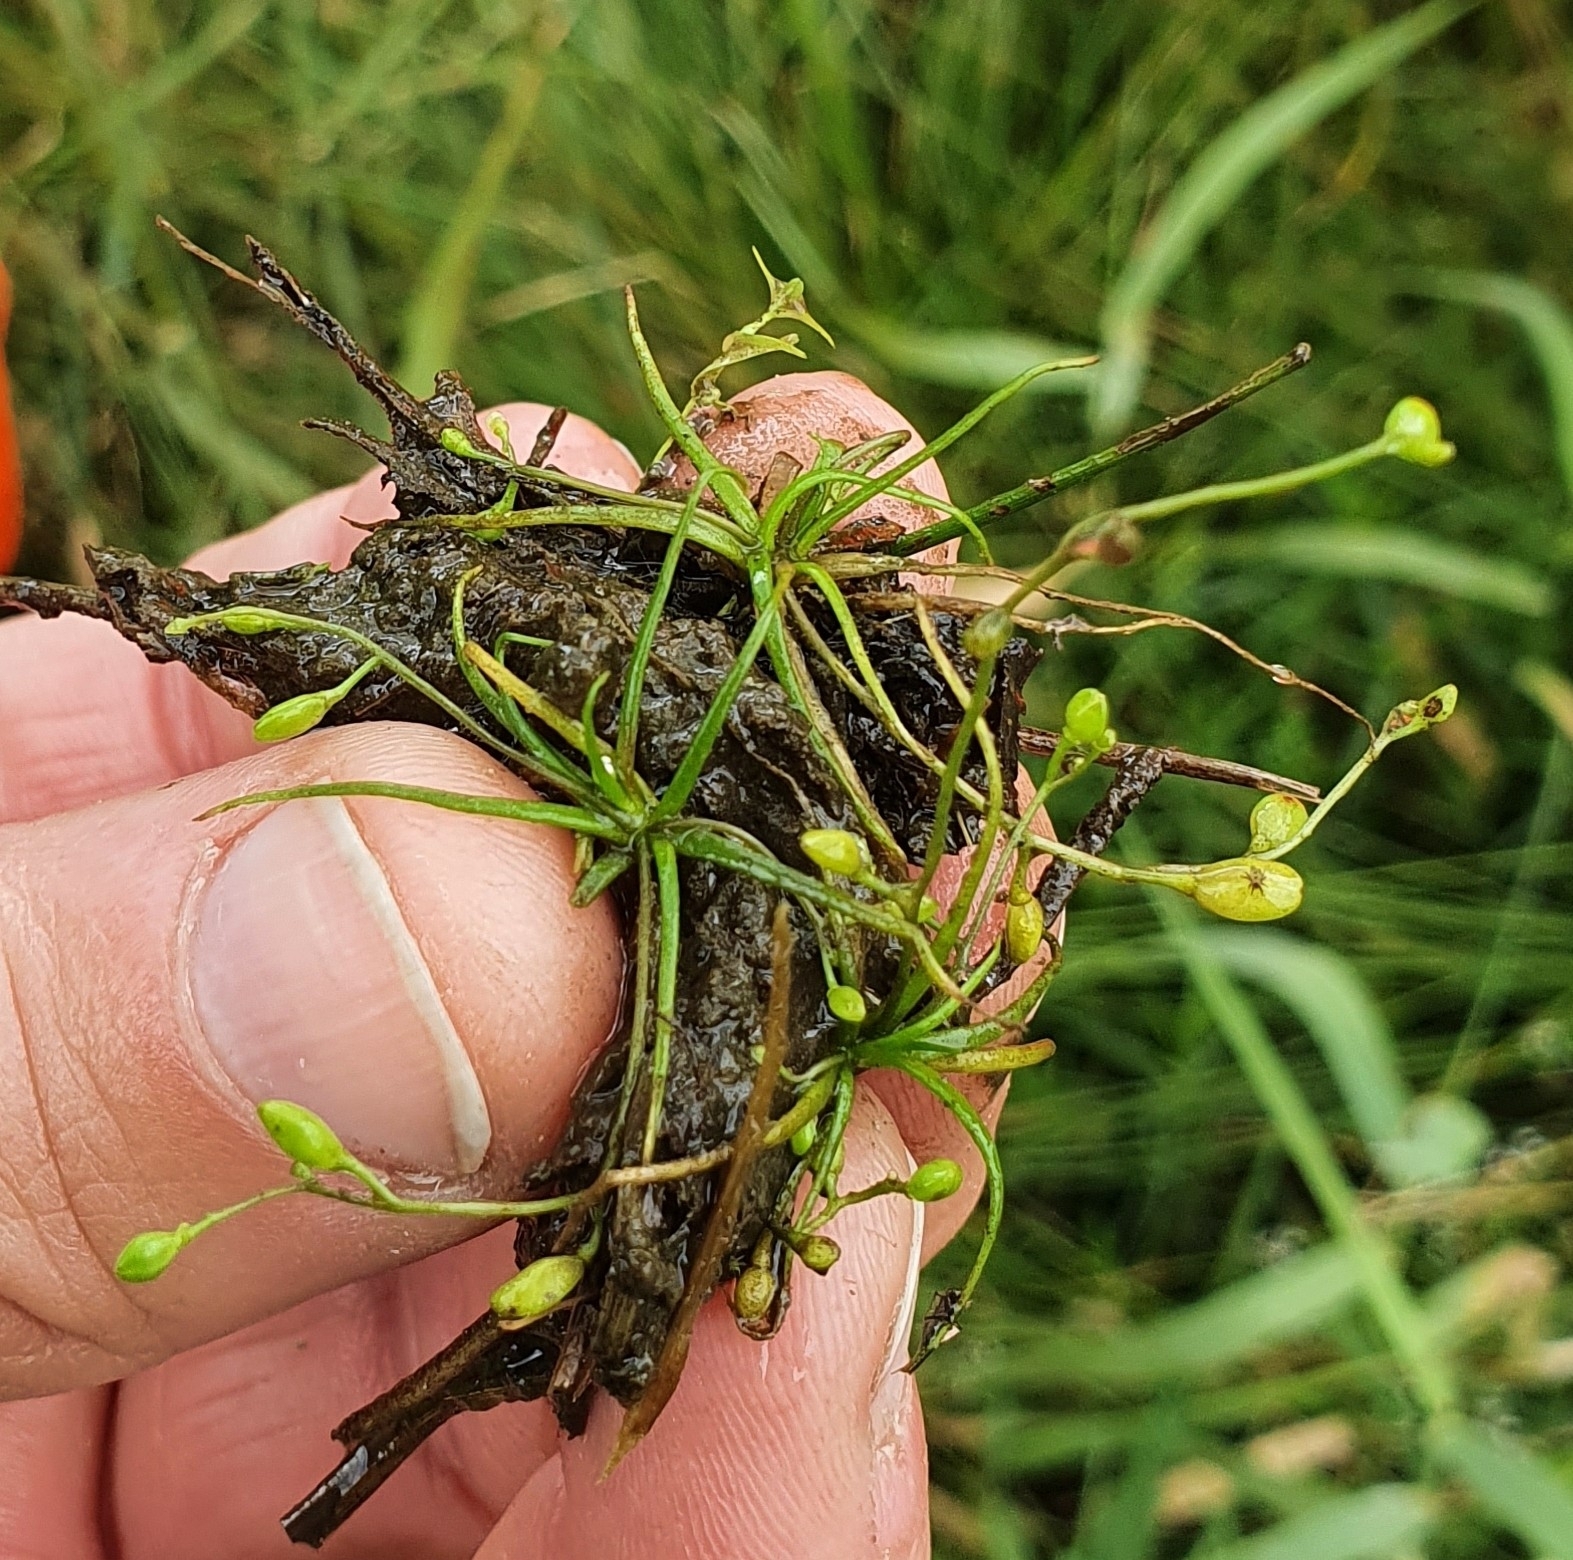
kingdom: Plantae
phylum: Tracheophyta
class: Magnoliopsida
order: Brassicales
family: Brassicaceae
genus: Subularia
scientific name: Subularia aquatica
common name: Awlwort
